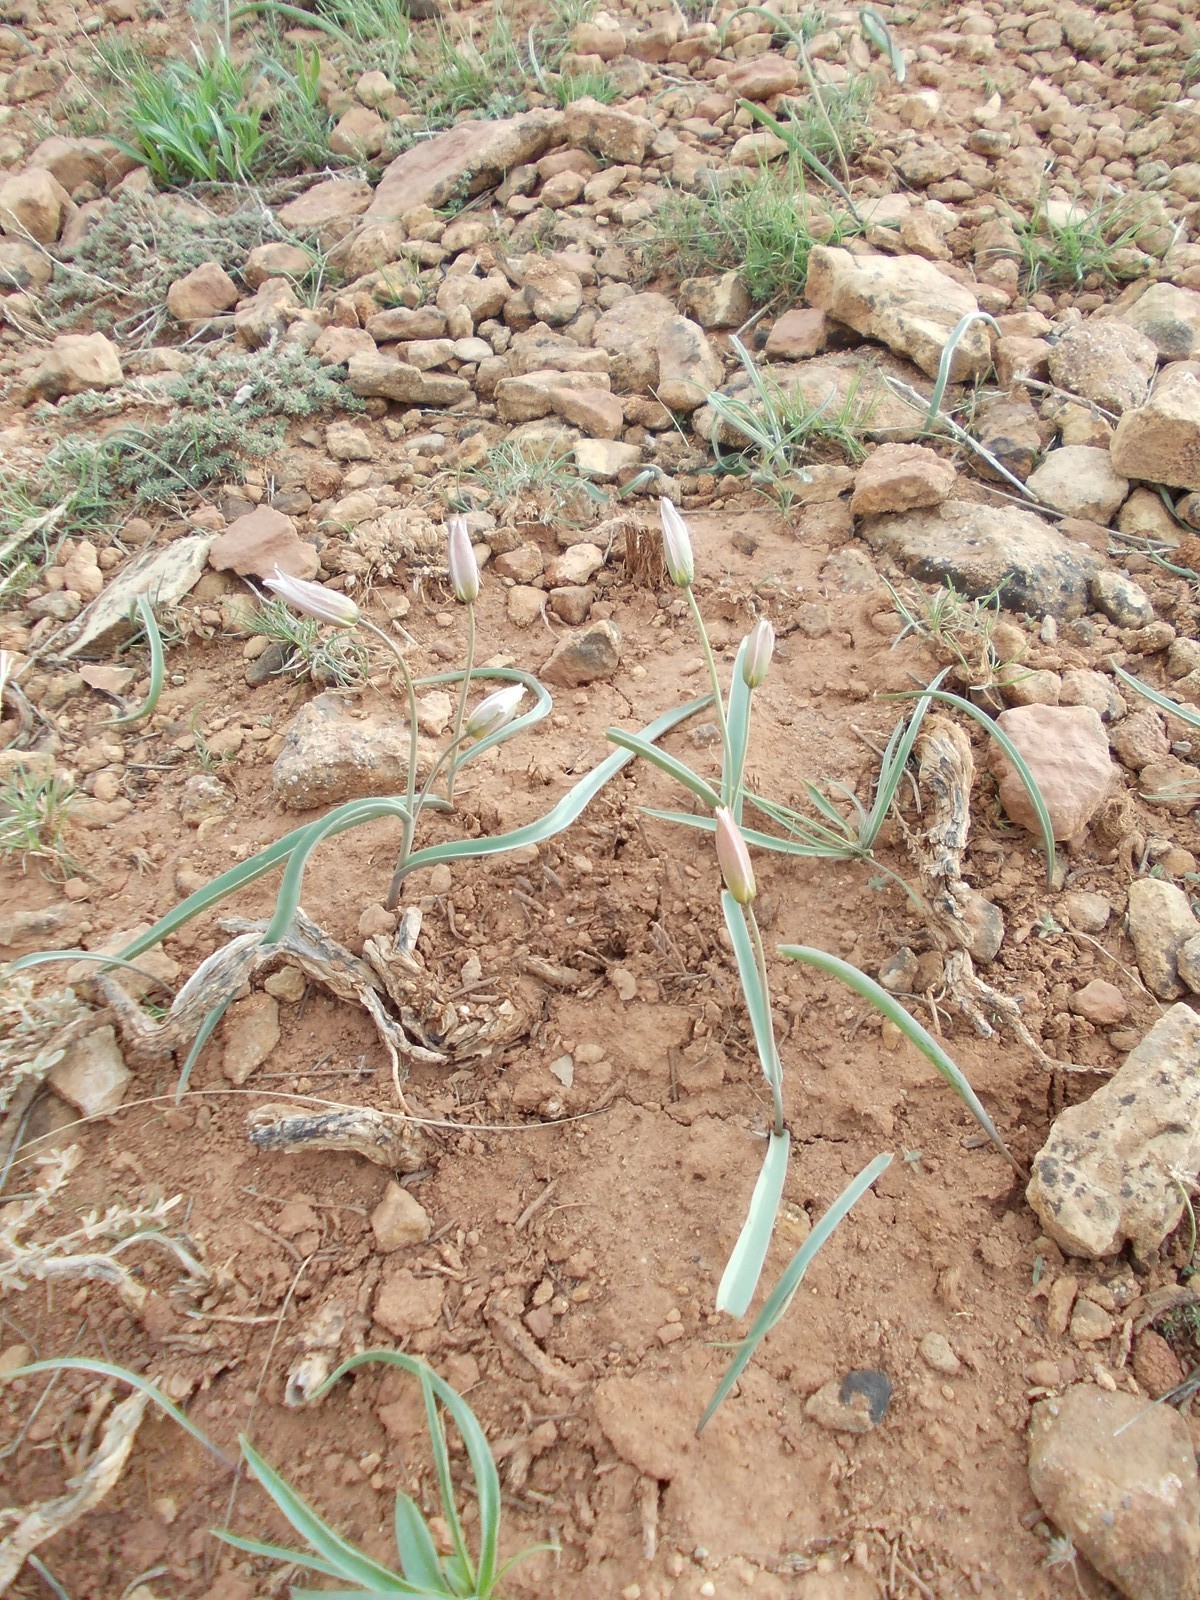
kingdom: Plantae
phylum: Tracheophyta
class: Liliopsida
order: Liliales
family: Liliaceae
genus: Tulipa
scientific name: Tulipa biflora
